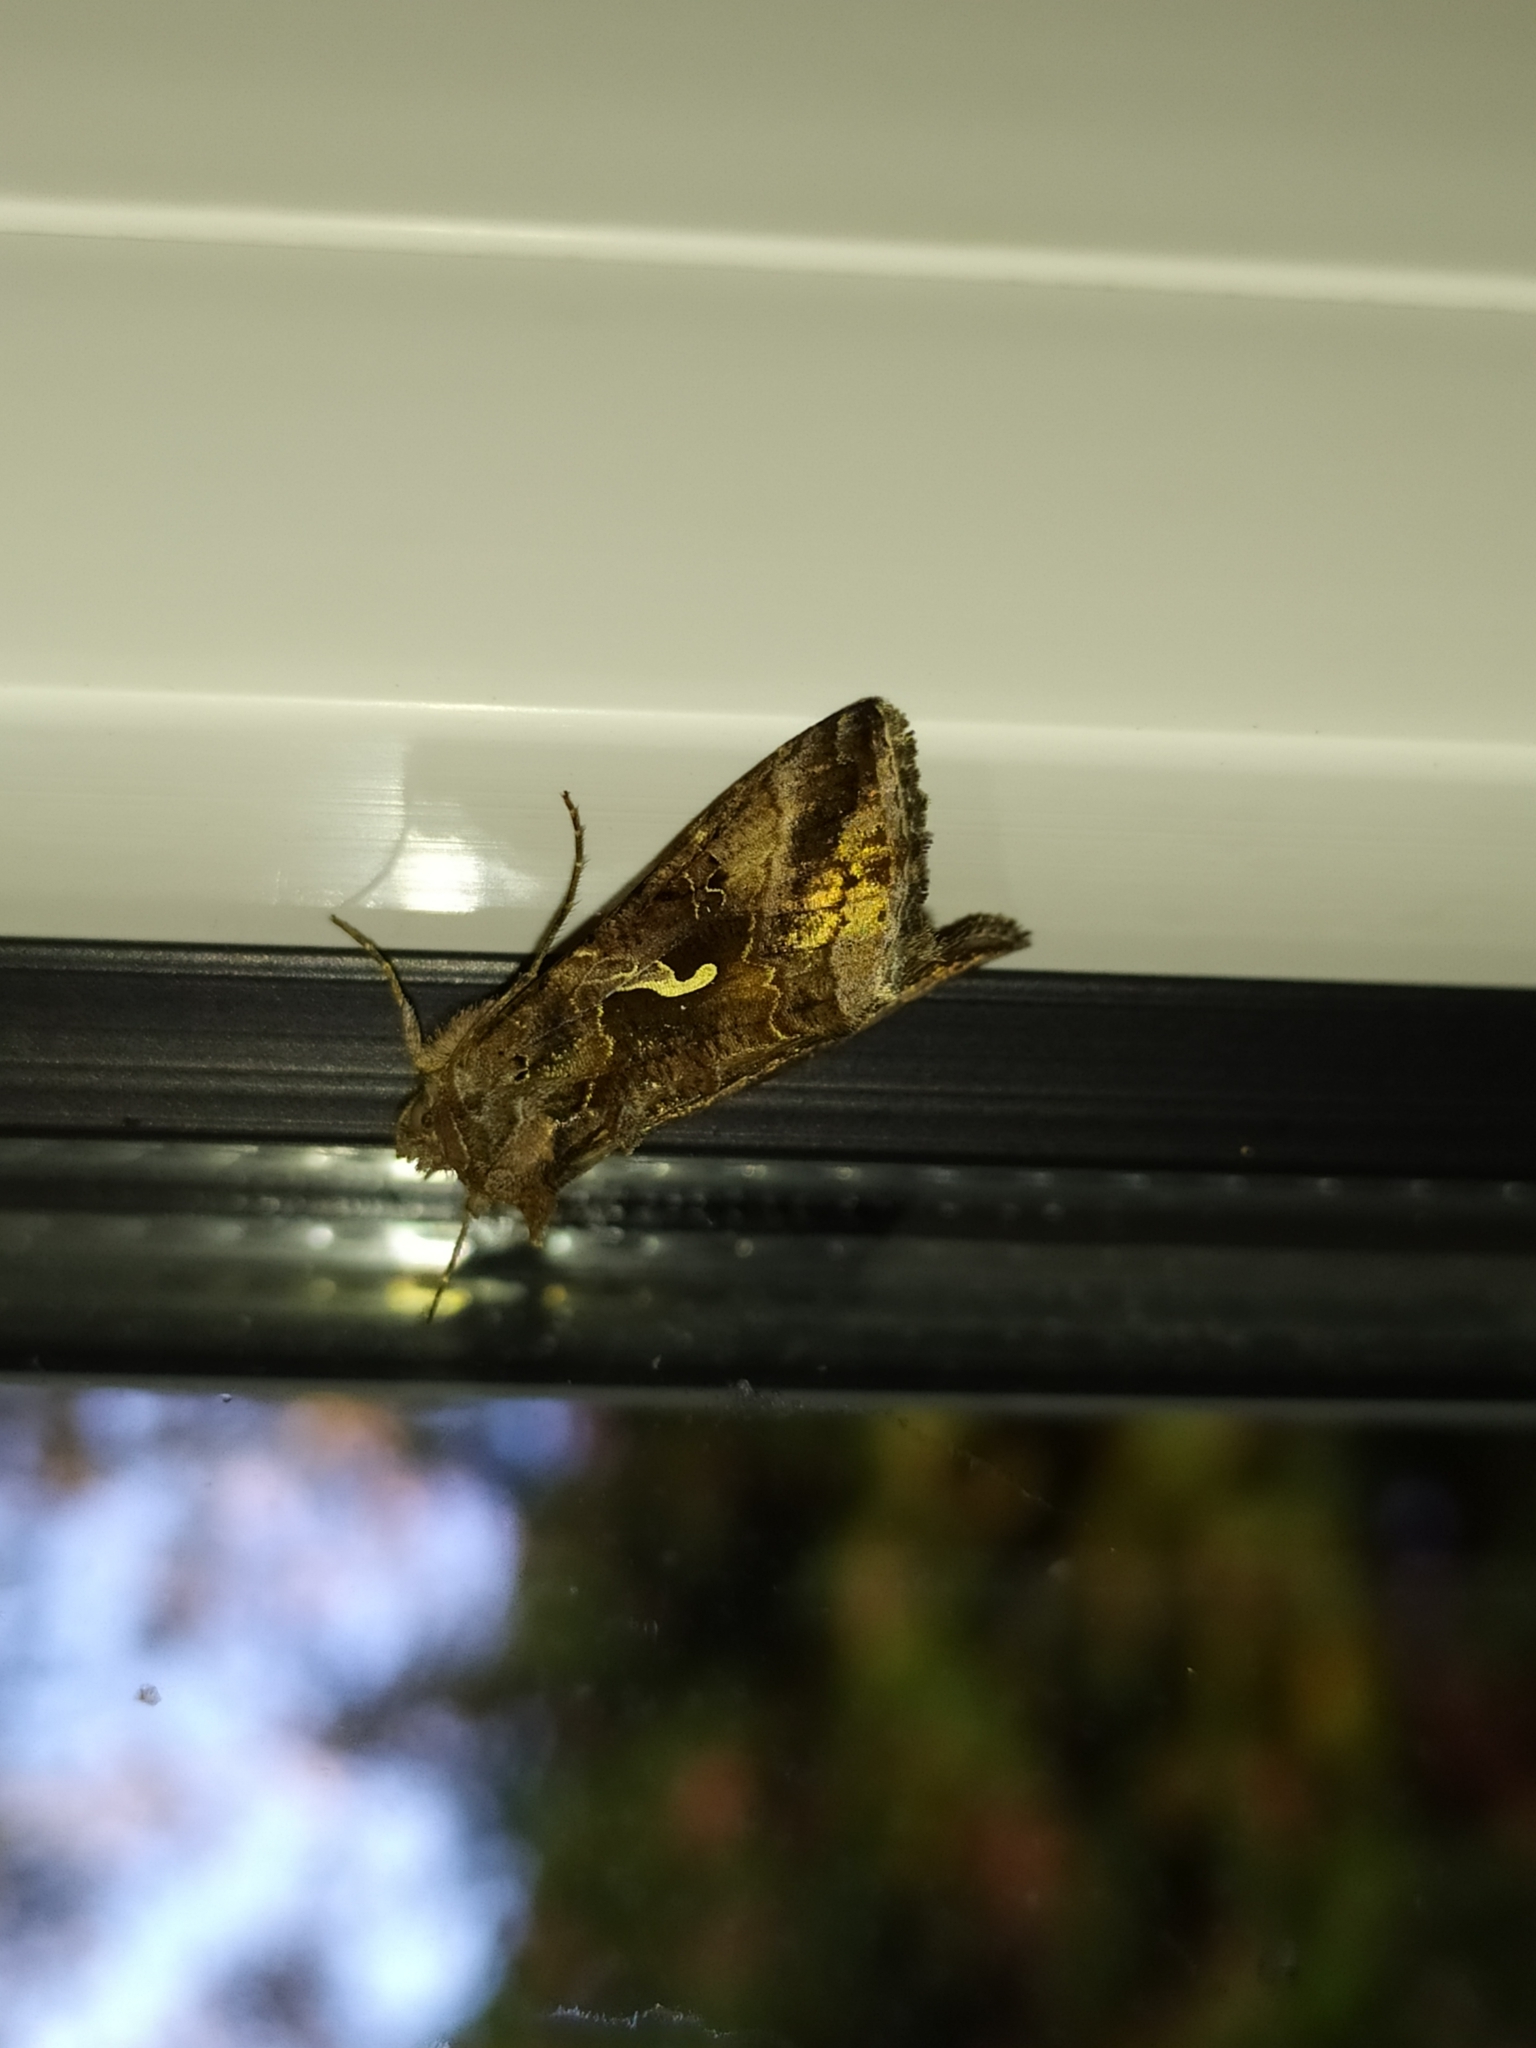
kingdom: Animalia
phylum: Arthropoda
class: Insecta
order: Lepidoptera
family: Noctuidae
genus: Autographa
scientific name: Autographa gamma
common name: Silver y
